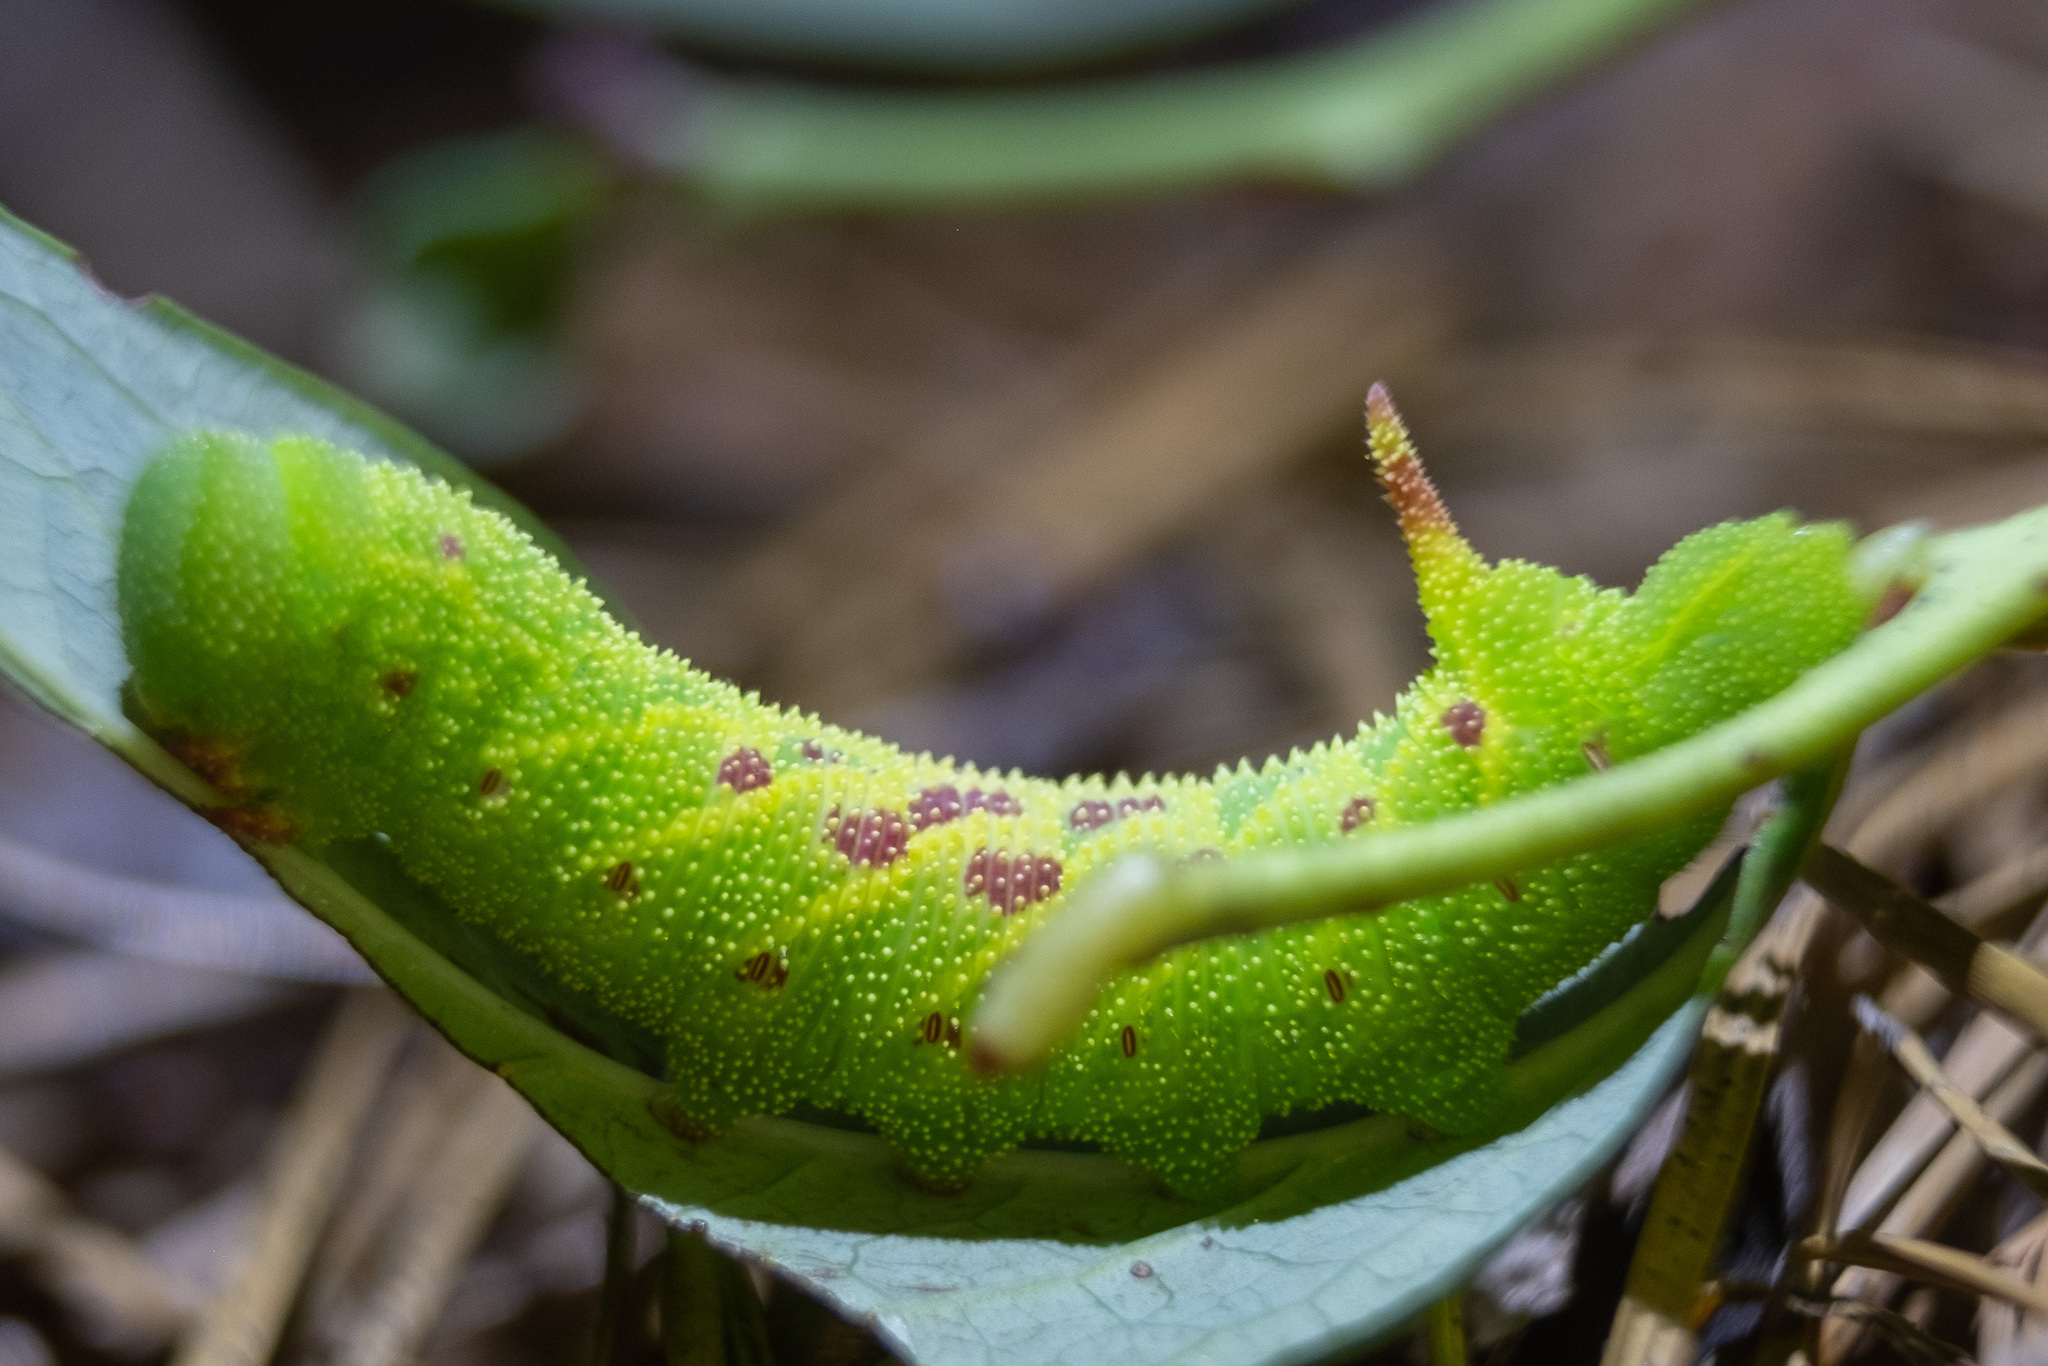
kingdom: Animalia
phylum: Arthropoda
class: Insecta
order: Lepidoptera
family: Sphingidae
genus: Paonias
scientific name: Paonias astylus
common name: Huckleberry sphinx
